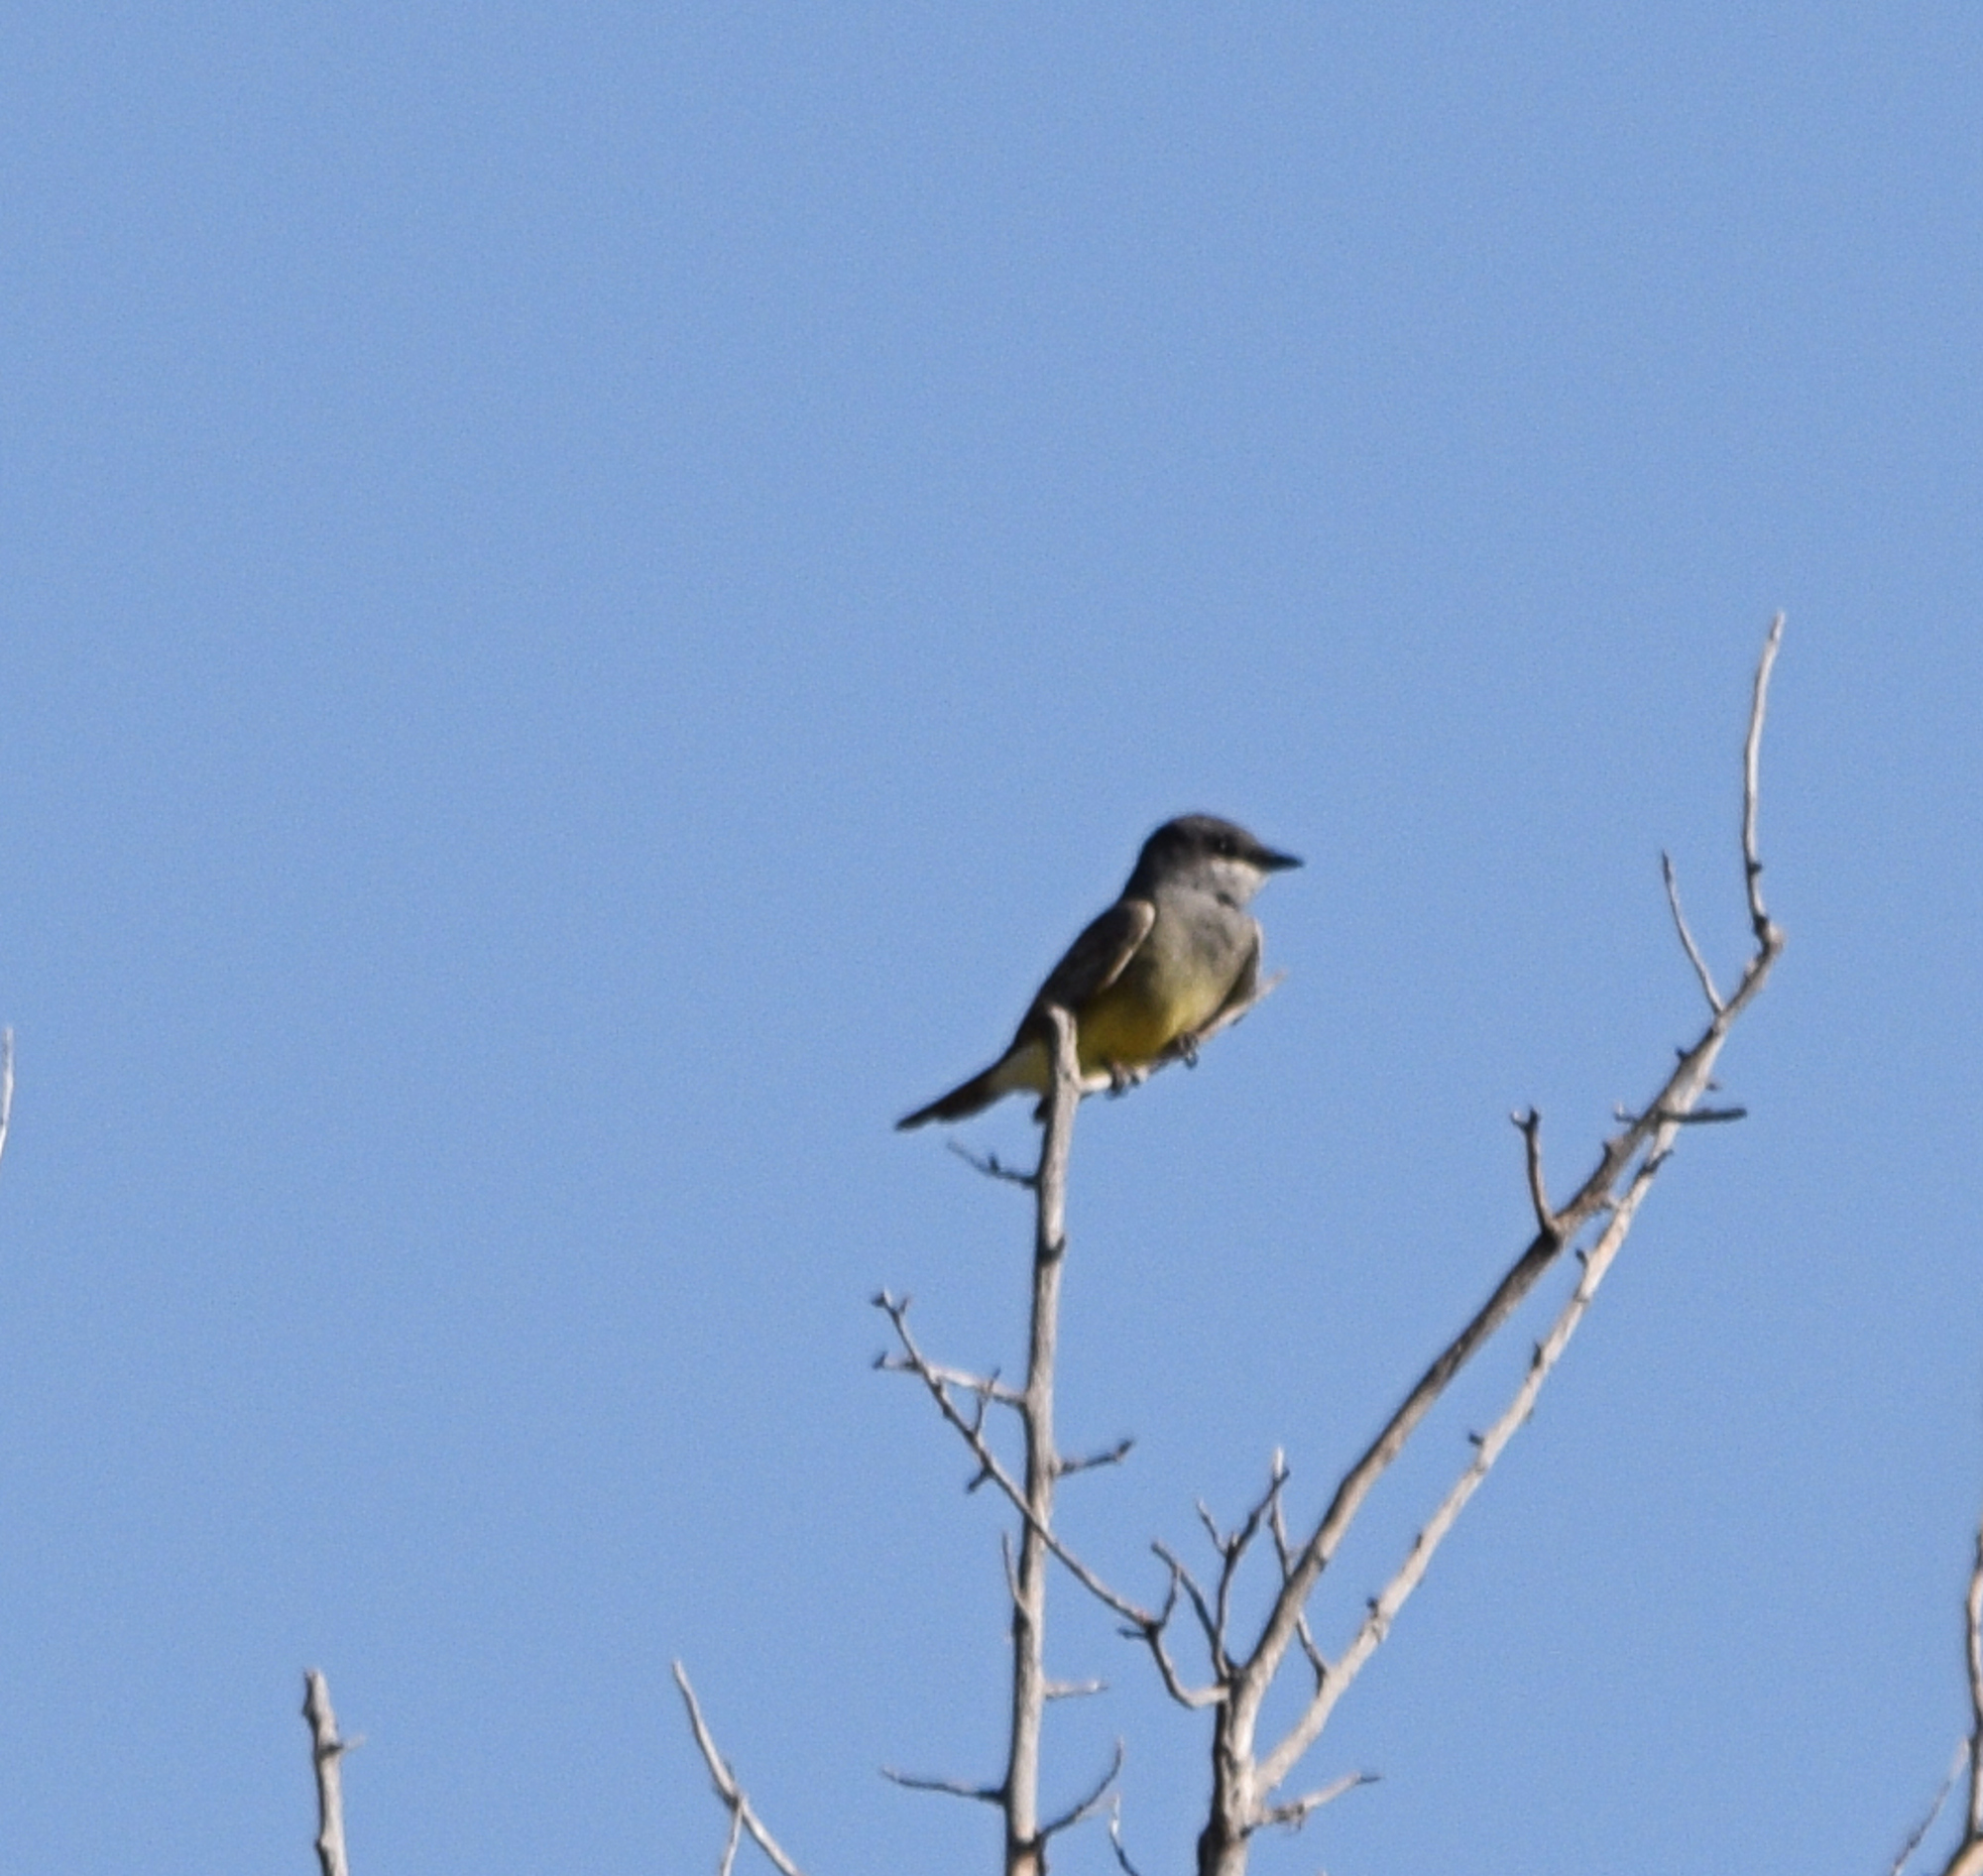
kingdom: Animalia
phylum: Chordata
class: Aves
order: Passeriformes
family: Tyrannidae
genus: Tyrannus
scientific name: Tyrannus vociferans
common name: Cassin's kingbird
